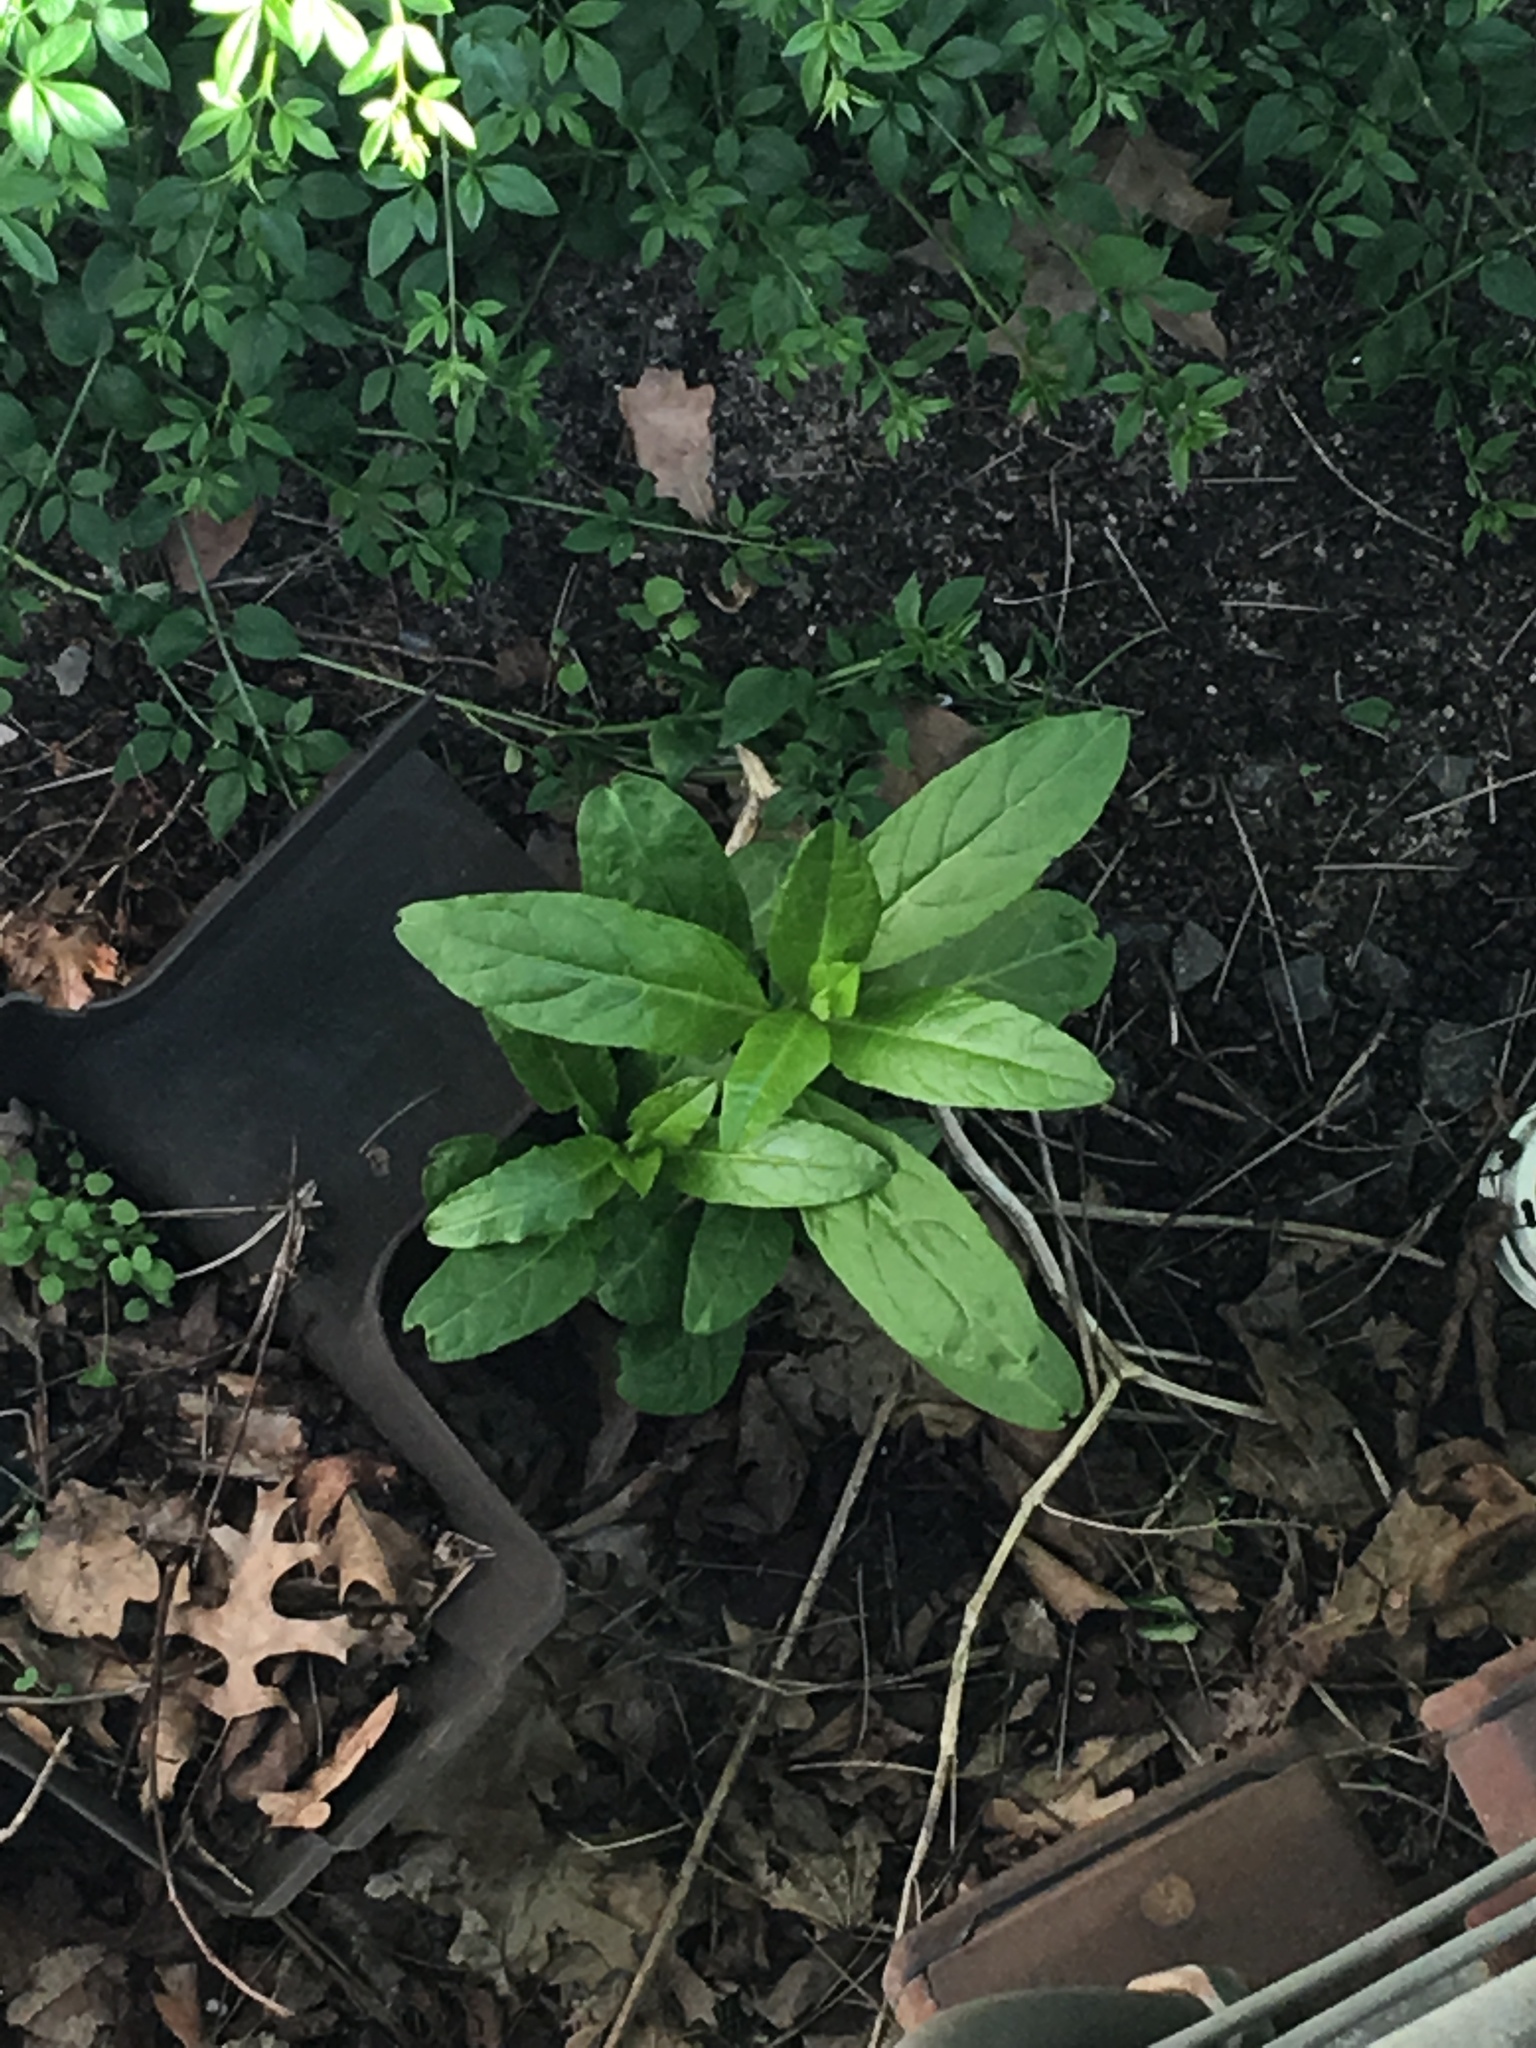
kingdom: Plantae
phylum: Tracheophyta
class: Magnoliopsida
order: Caryophyllales
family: Phytolaccaceae
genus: Phytolacca
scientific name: Phytolacca americana
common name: American pokeweed
